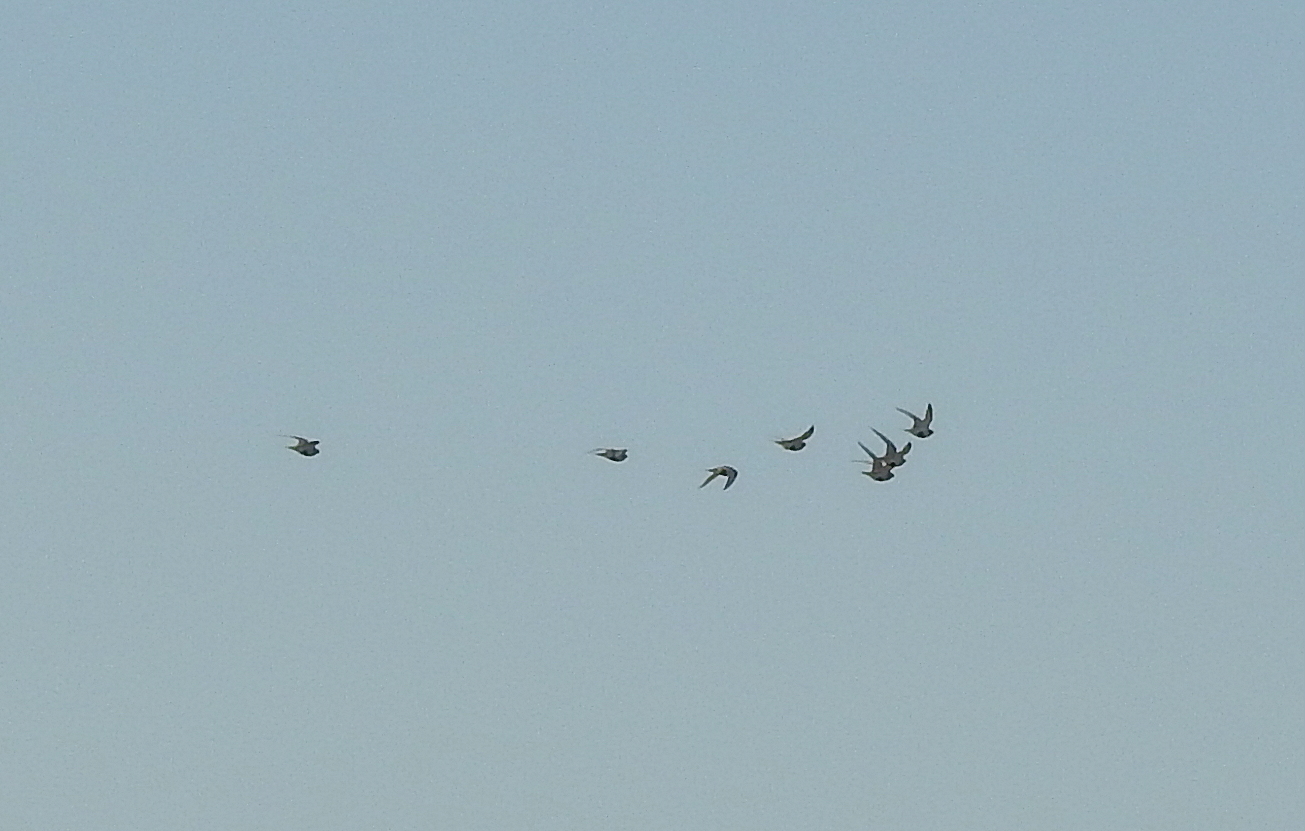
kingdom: Animalia
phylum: Chordata
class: Aves
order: Pteroclidiformes
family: Pteroclididae
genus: Syrrhaptes
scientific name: Syrrhaptes paradoxus
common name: Pallas's sandgrouse
